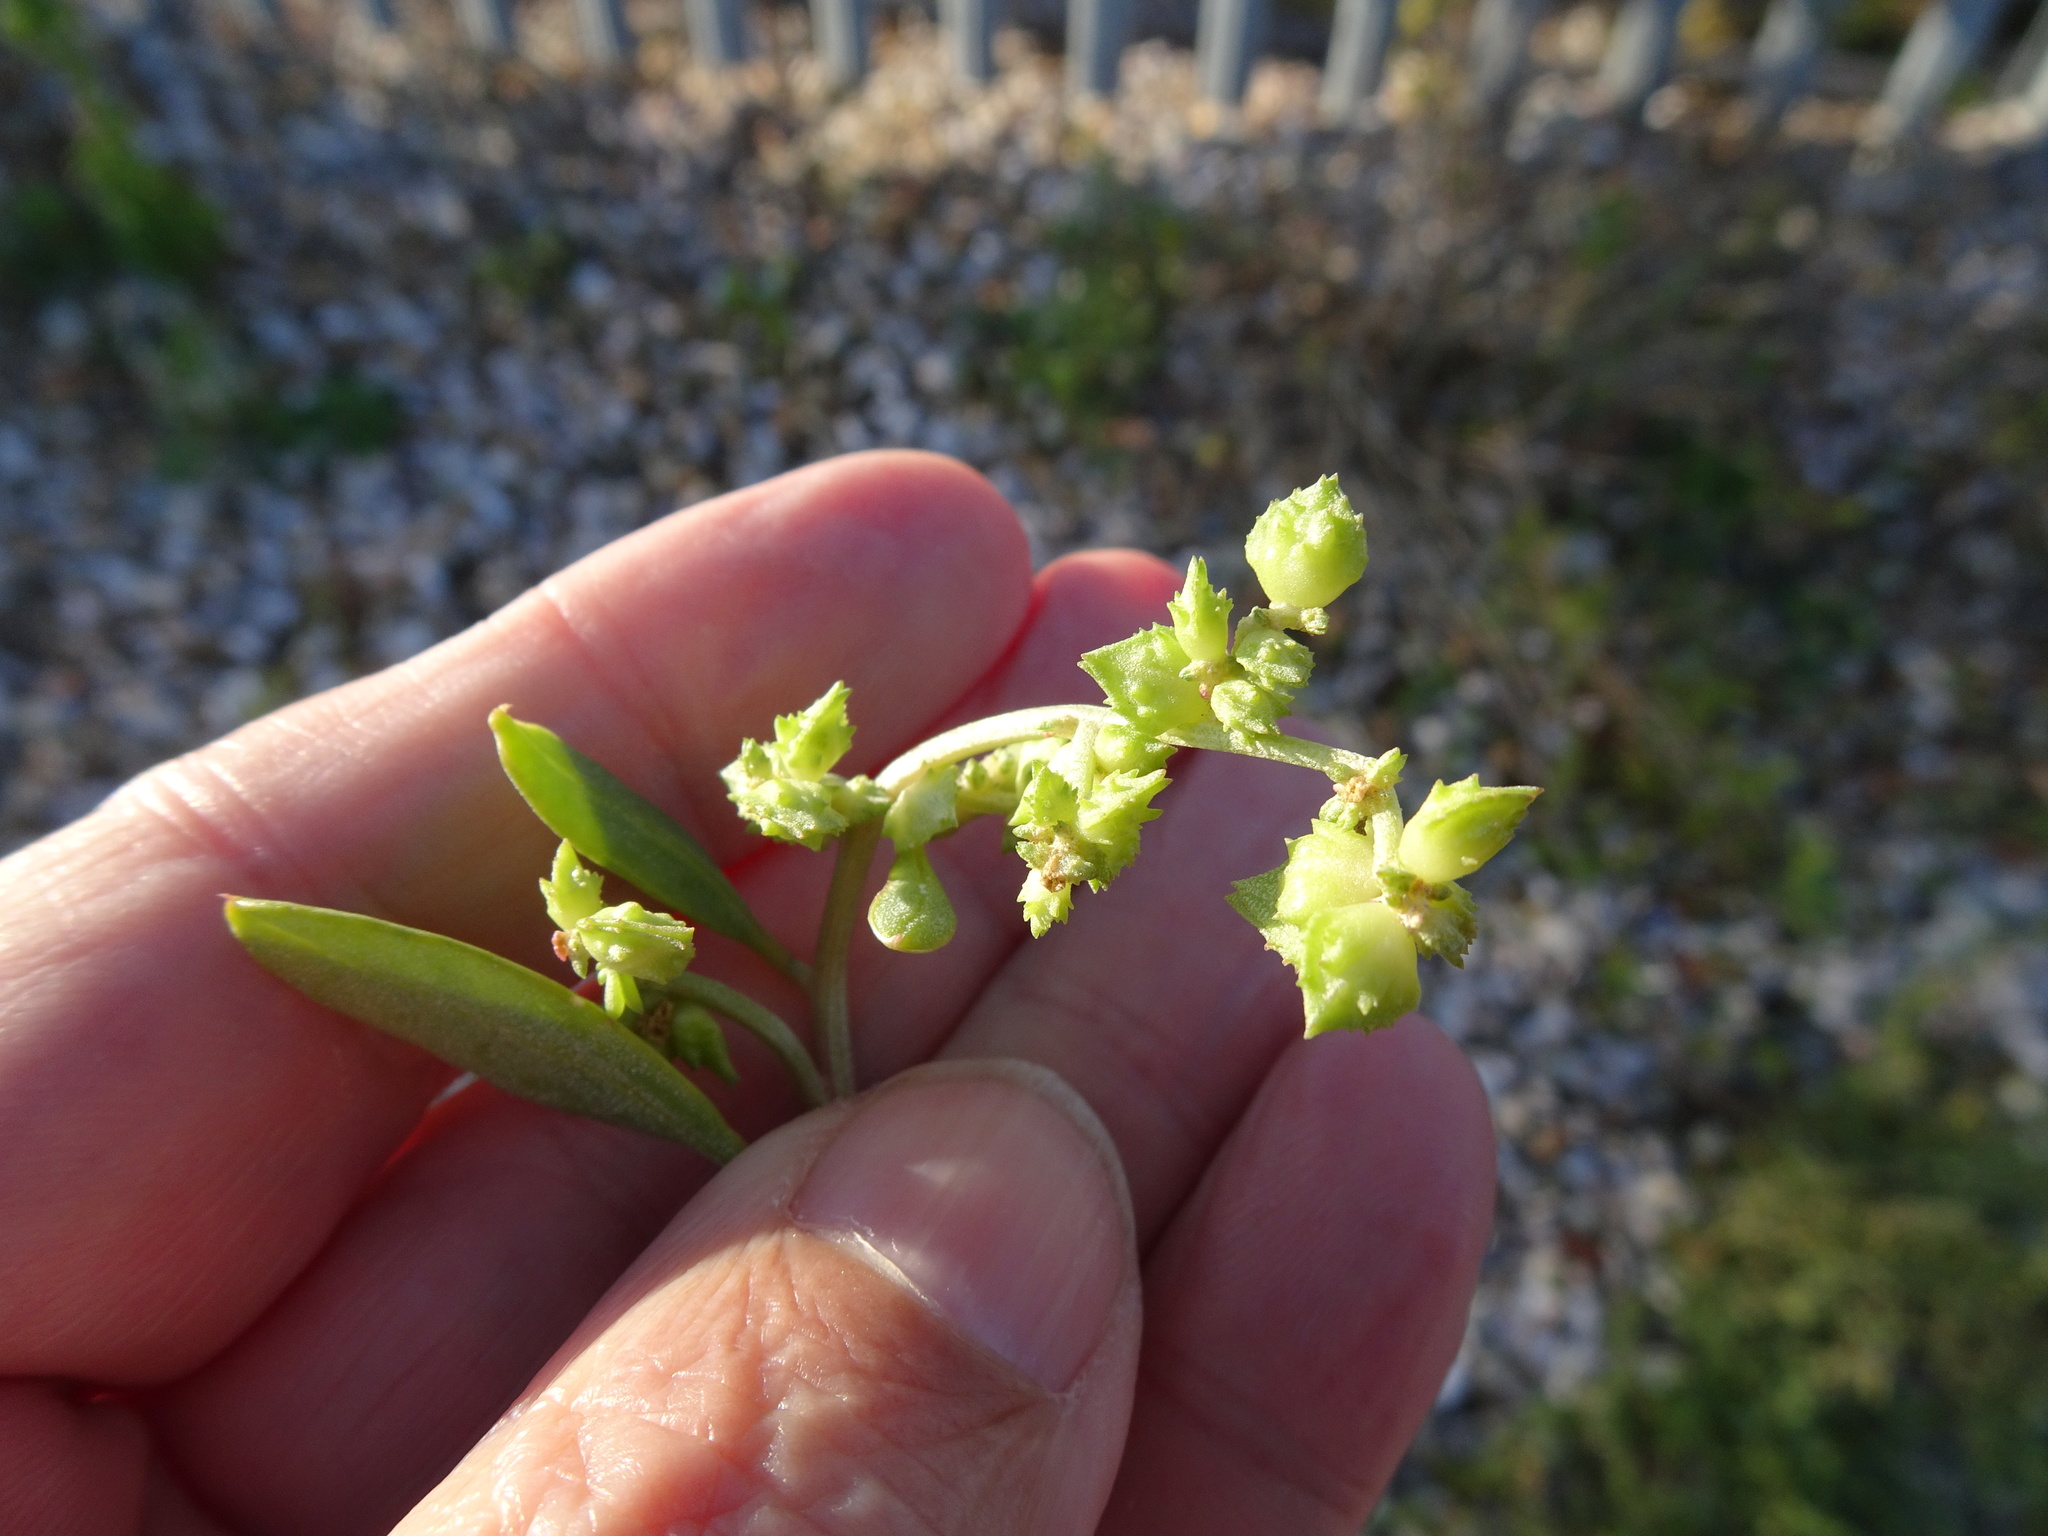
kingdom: Plantae
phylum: Tracheophyta
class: Magnoliopsida
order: Caryophyllales
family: Amaranthaceae
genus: Atriplex
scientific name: Atriplex glabriuscula
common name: Babington's orache
